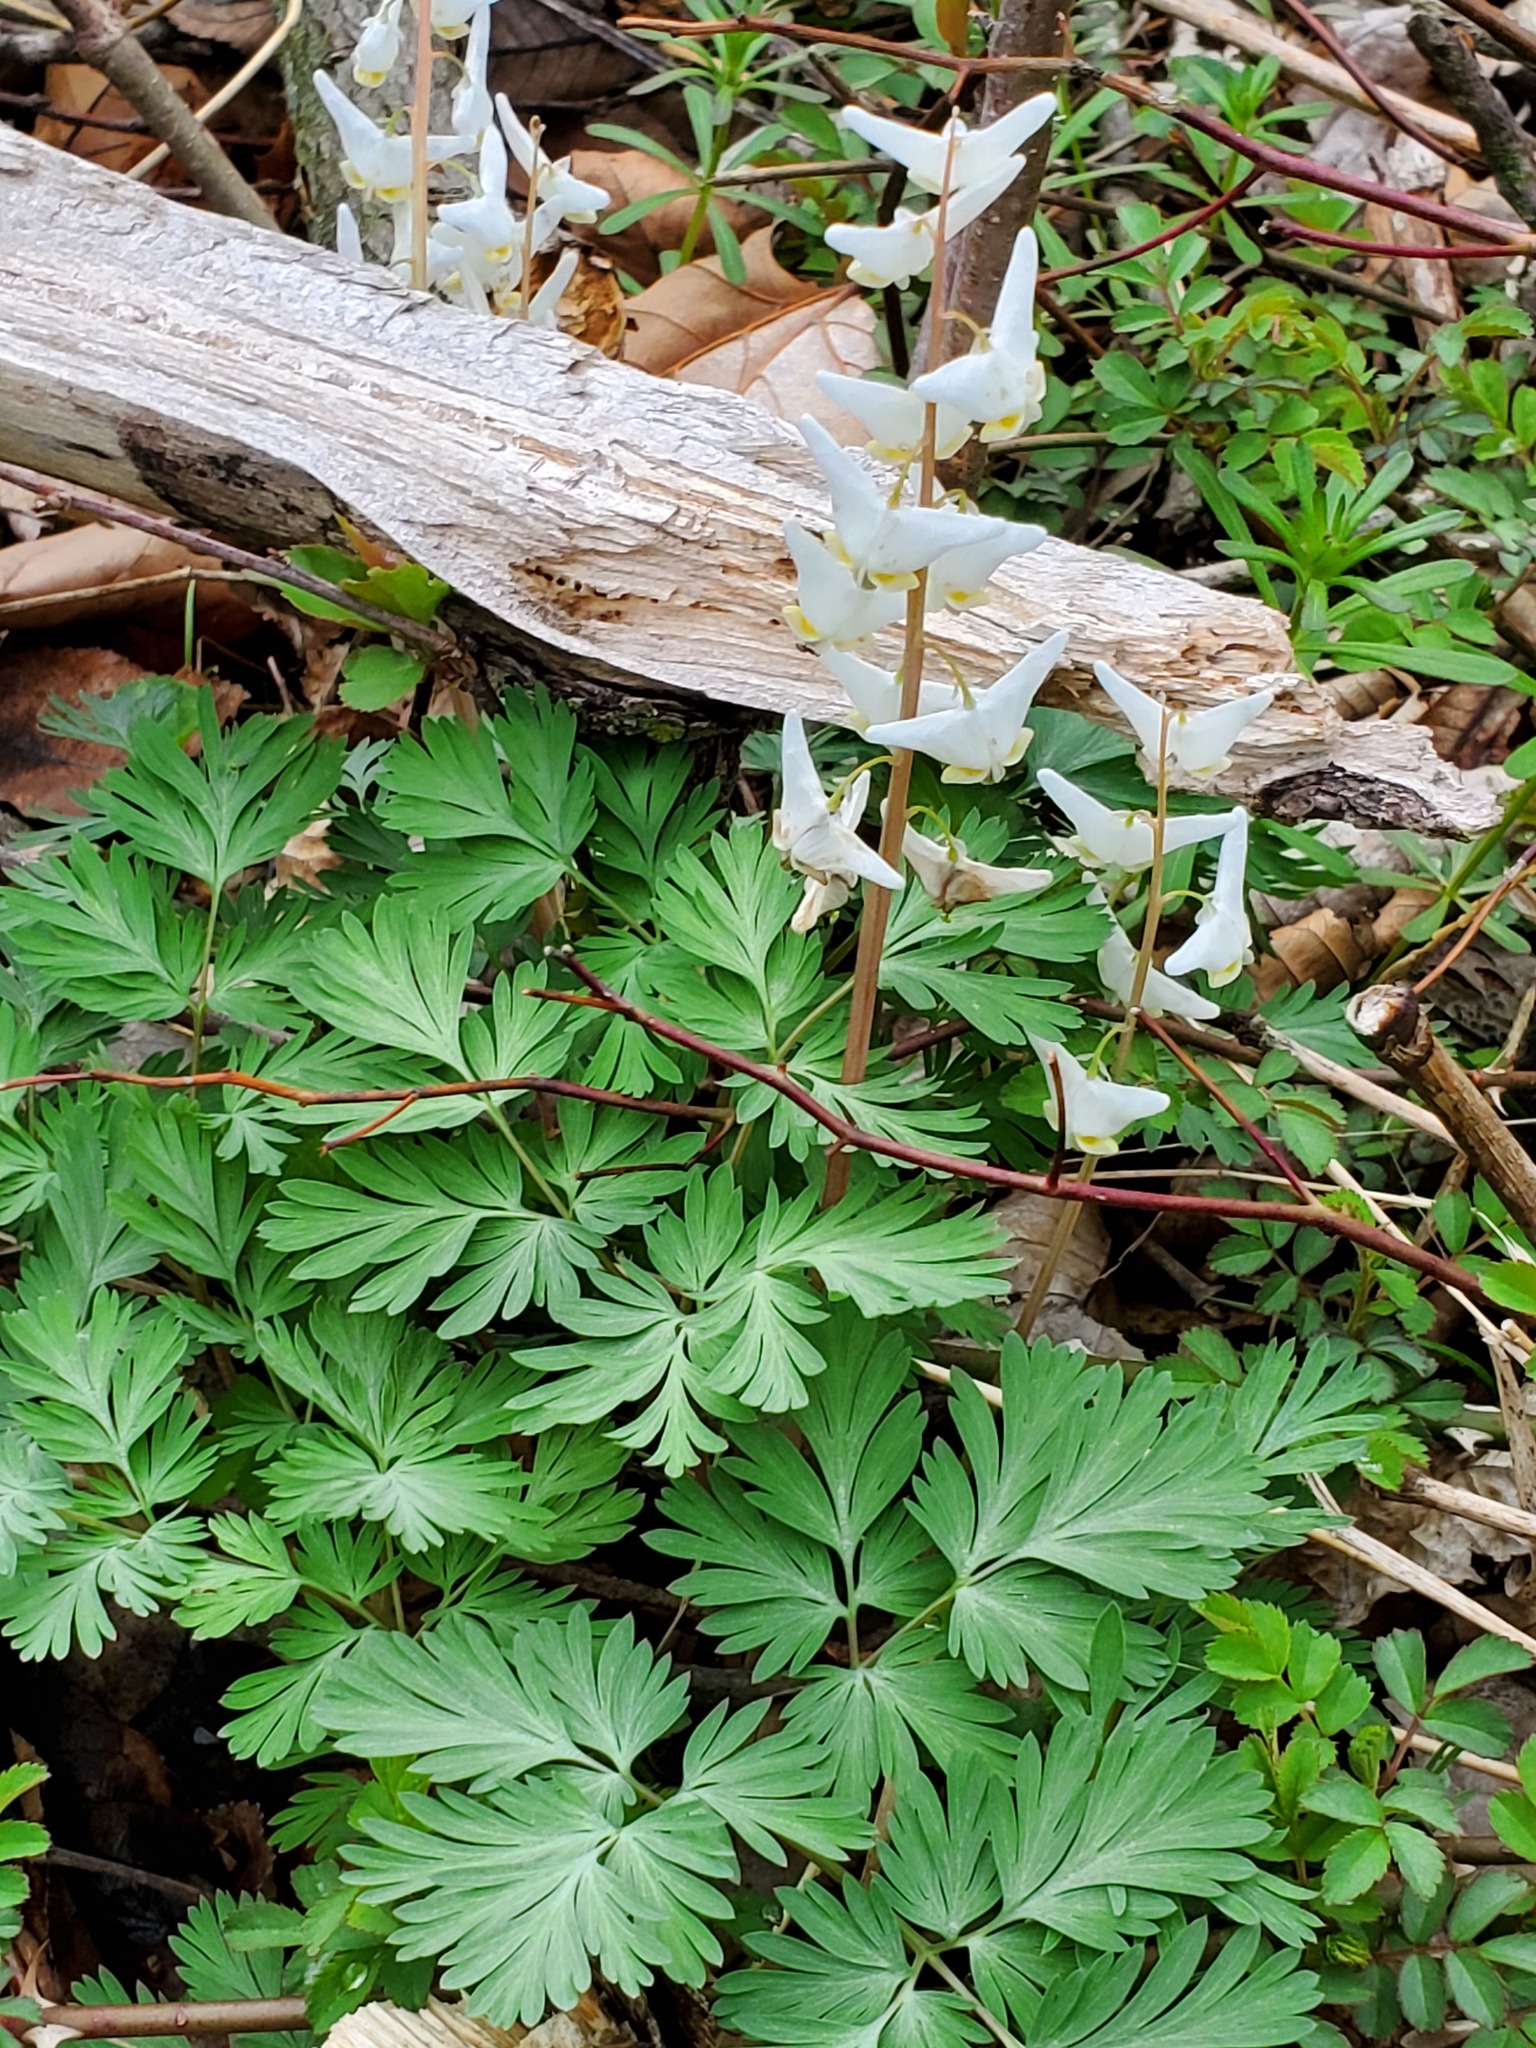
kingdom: Plantae
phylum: Tracheophyta
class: Magnoliopsida
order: Ranunculales
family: Papaveraceae
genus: Dicentra
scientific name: Dicentra cucullaria
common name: Dutchman's breeches
